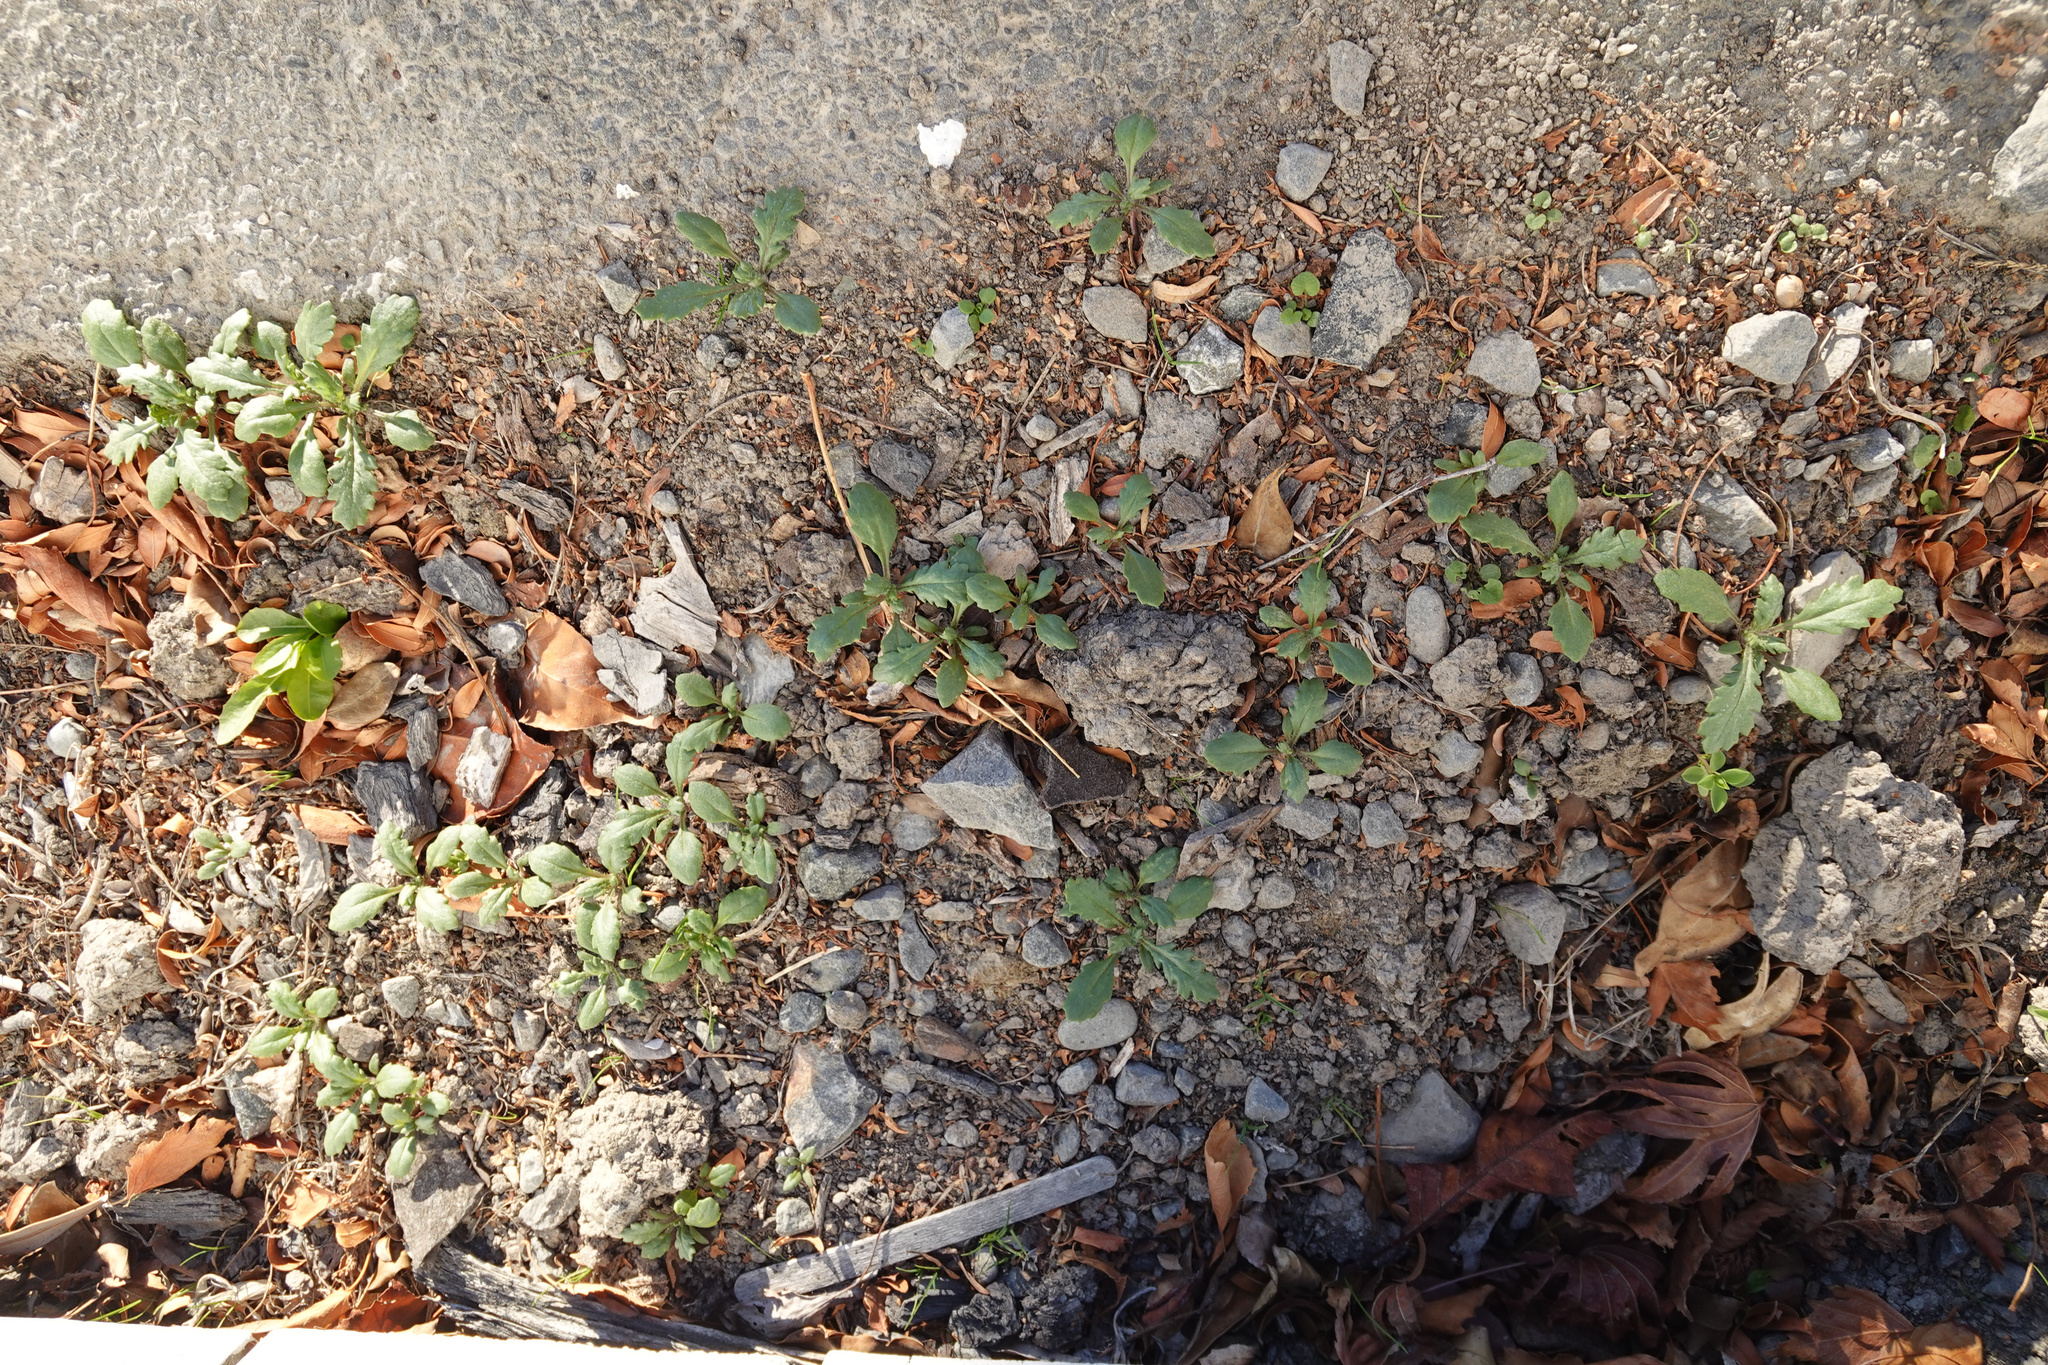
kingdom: Plantae
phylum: Tracheophyta
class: Magnoliopsida
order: Asterales
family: Asteraceae
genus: Senecio
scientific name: Senecio vulgaris
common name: Old-man-in-the-spring
